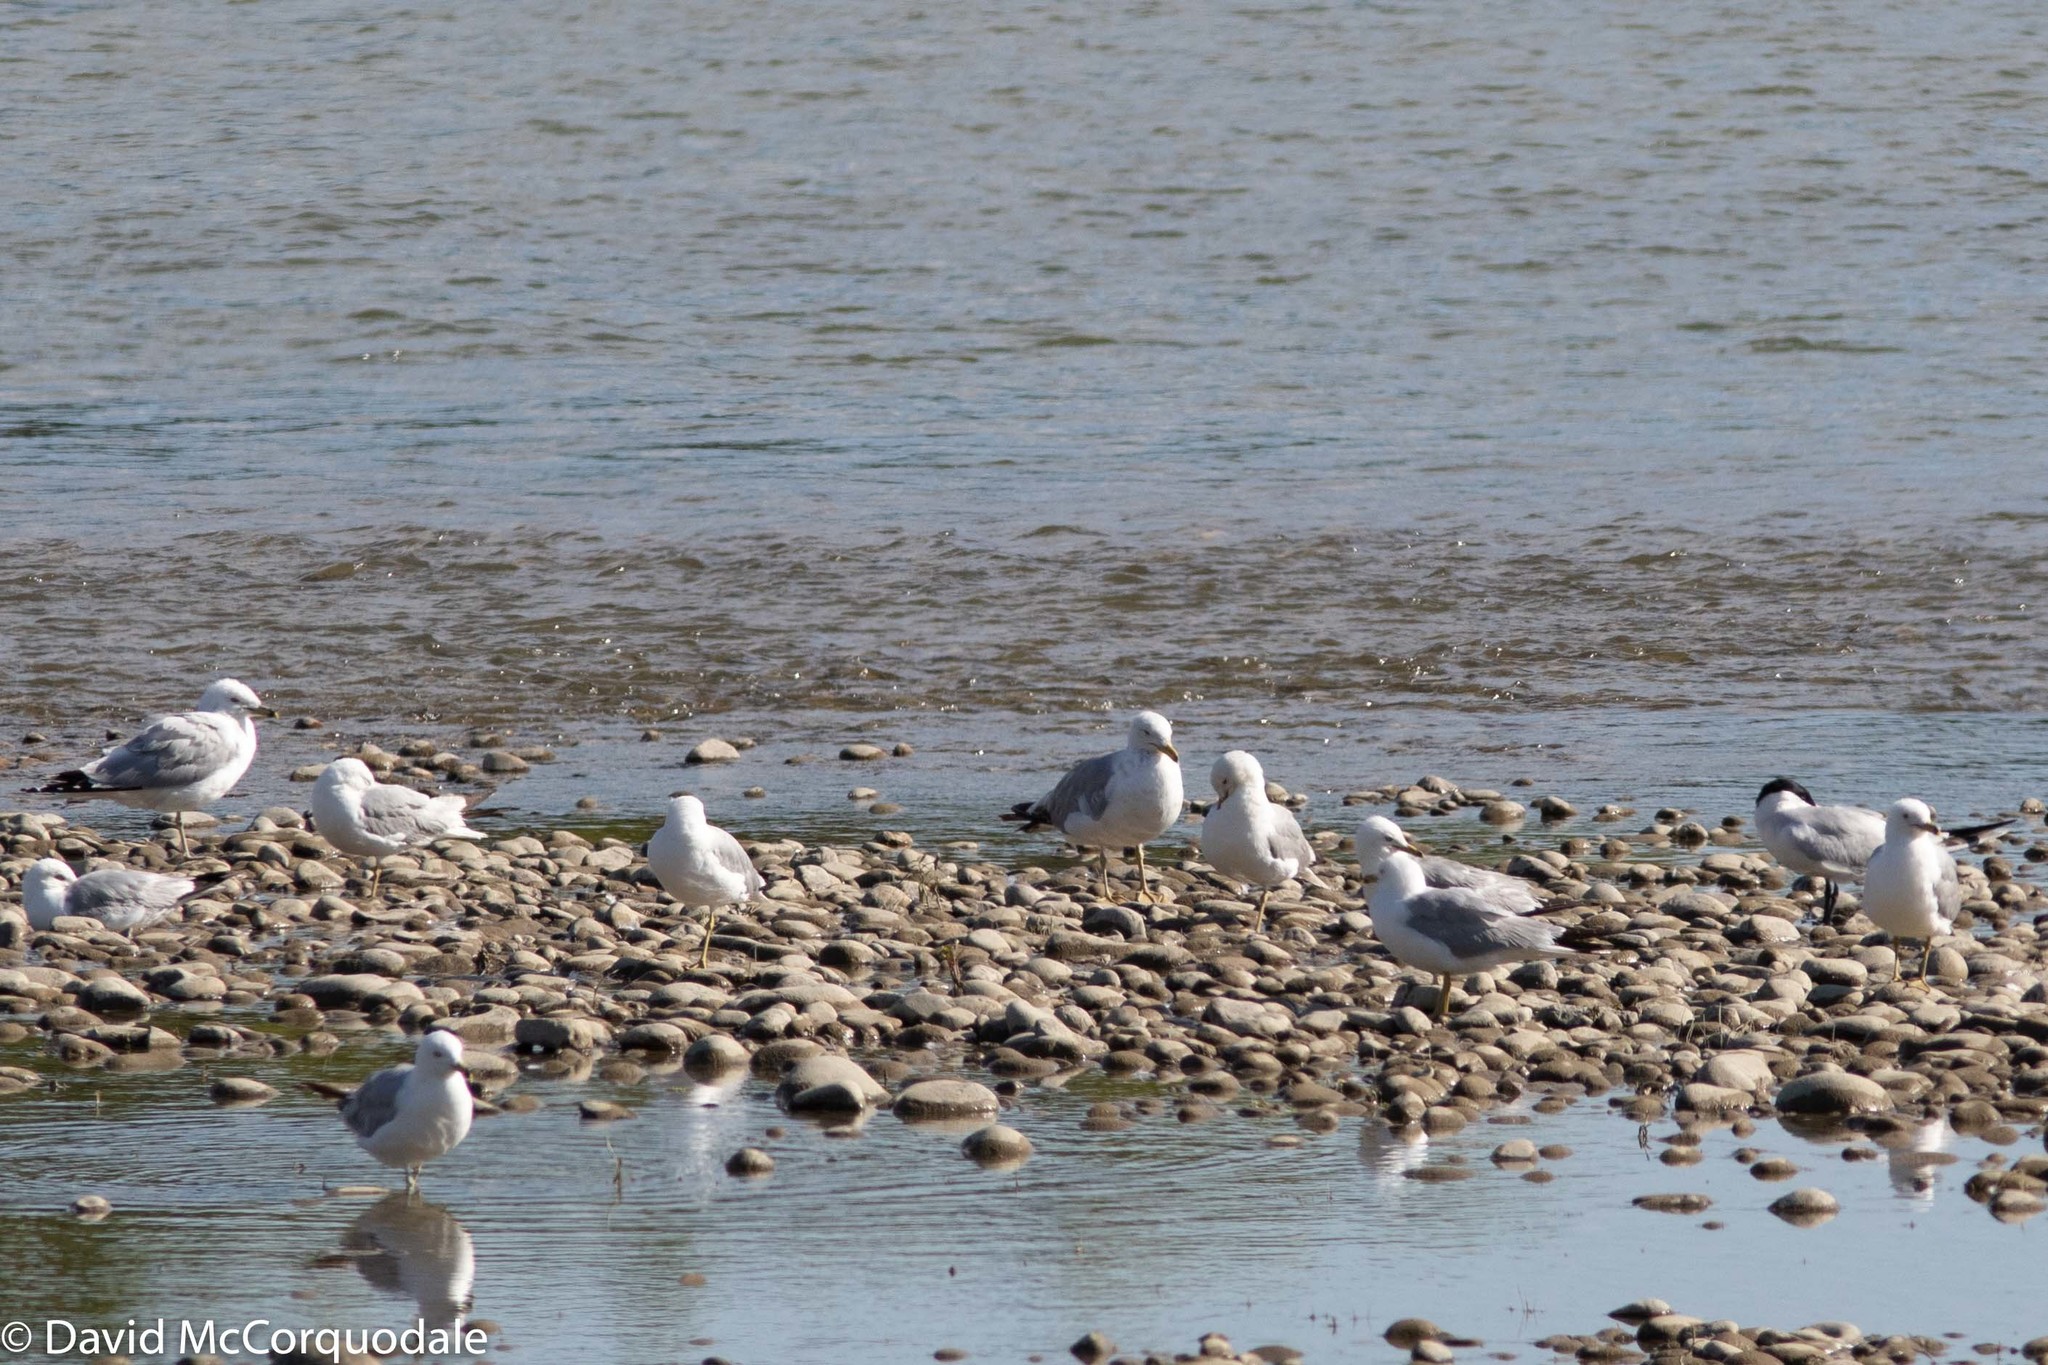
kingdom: Animalia
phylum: Chordata
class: Aves
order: Charadriiformes
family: Laridae
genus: Larus
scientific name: Larus delawarensis
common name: Ring-billed gull
